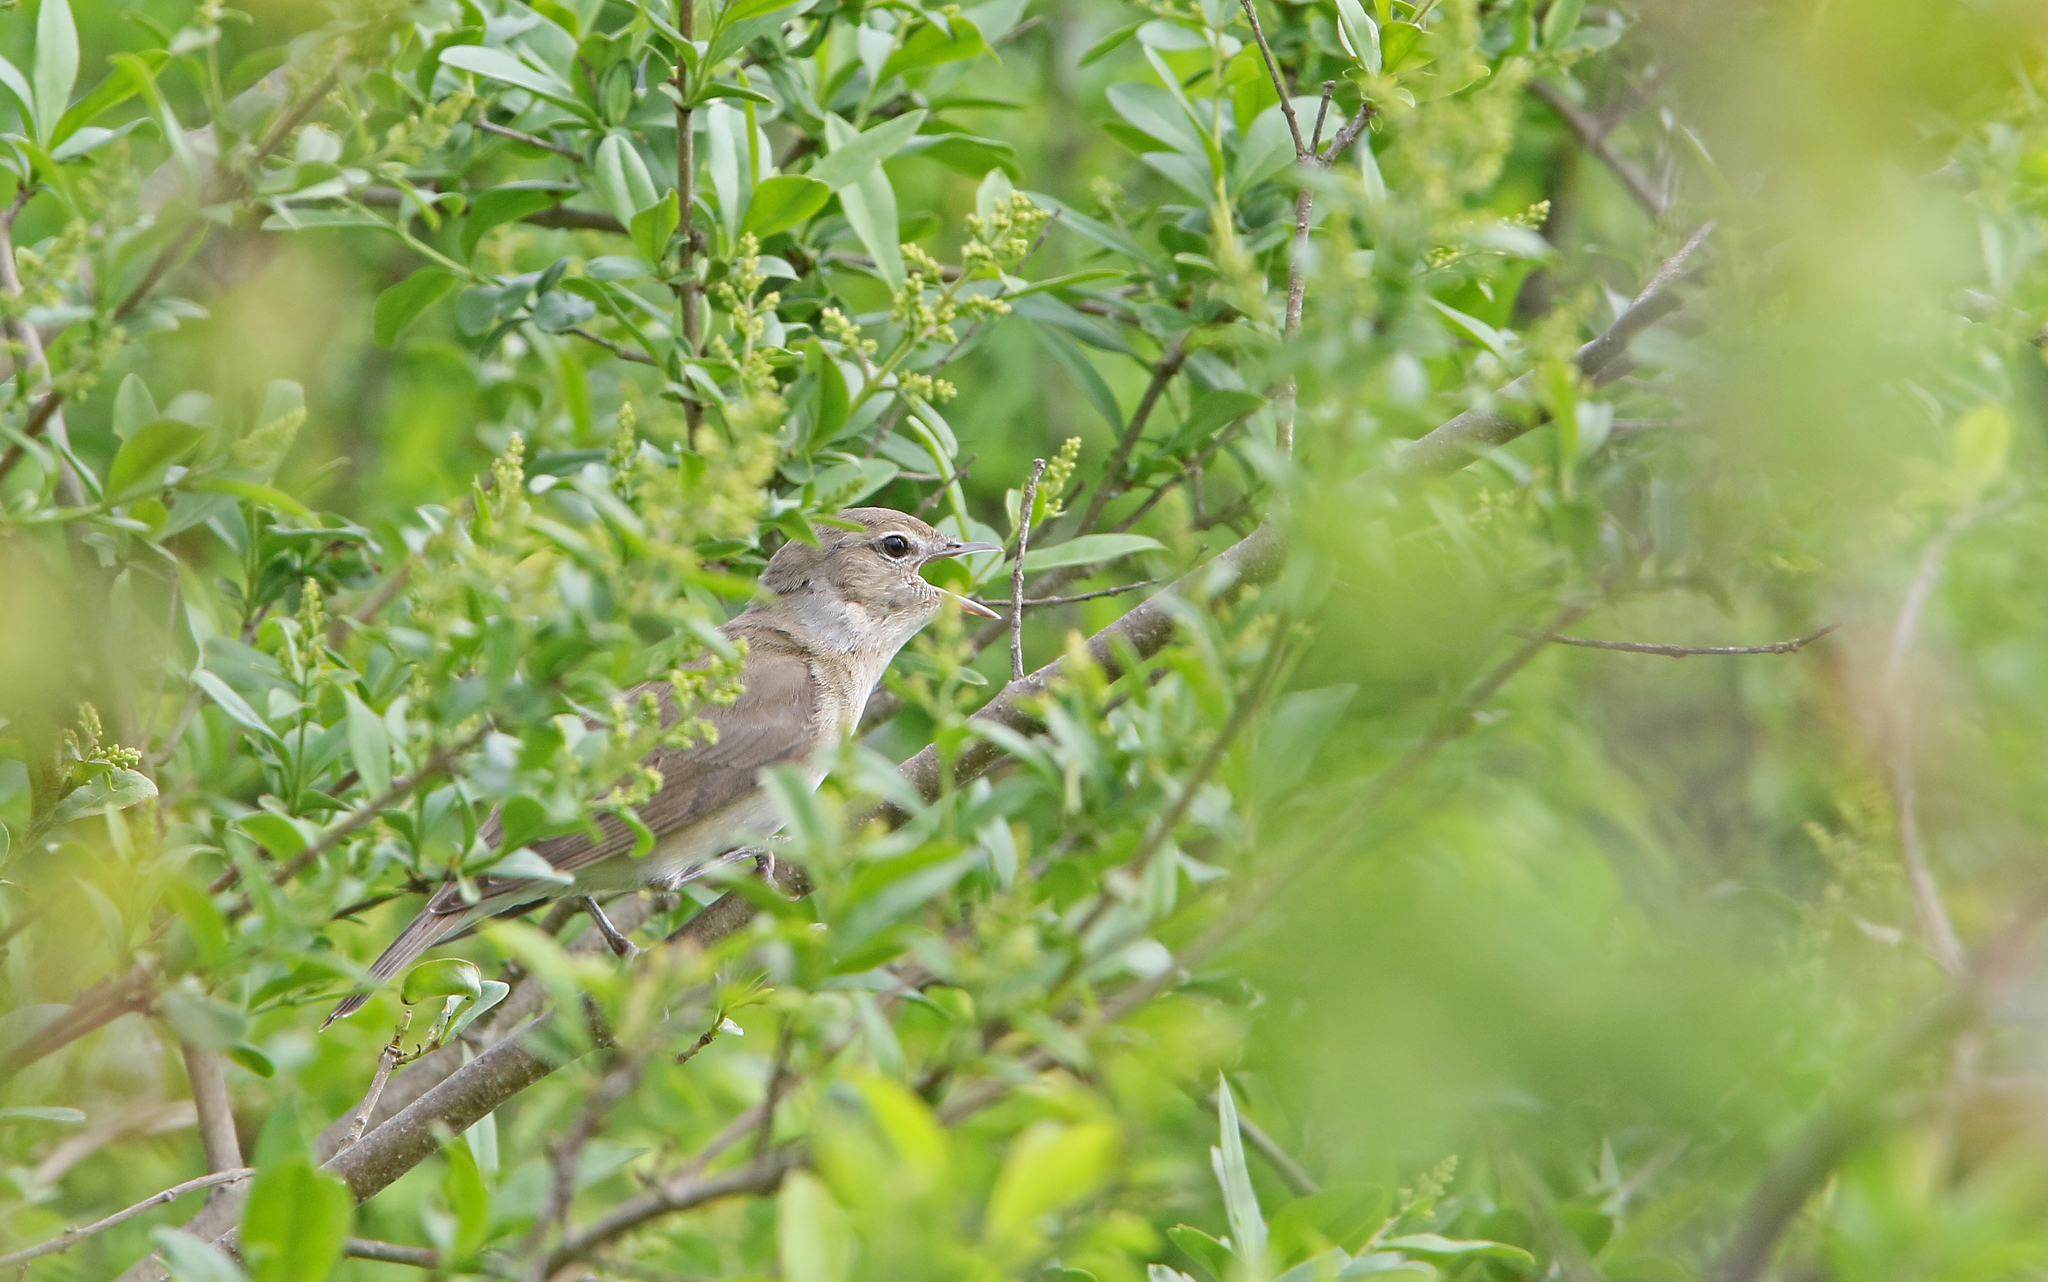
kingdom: Animalia
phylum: Chordata
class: Aves
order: Passeriformes
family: Sylviidae
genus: Sylvia
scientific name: Sylvia borin
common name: Garden warbler
